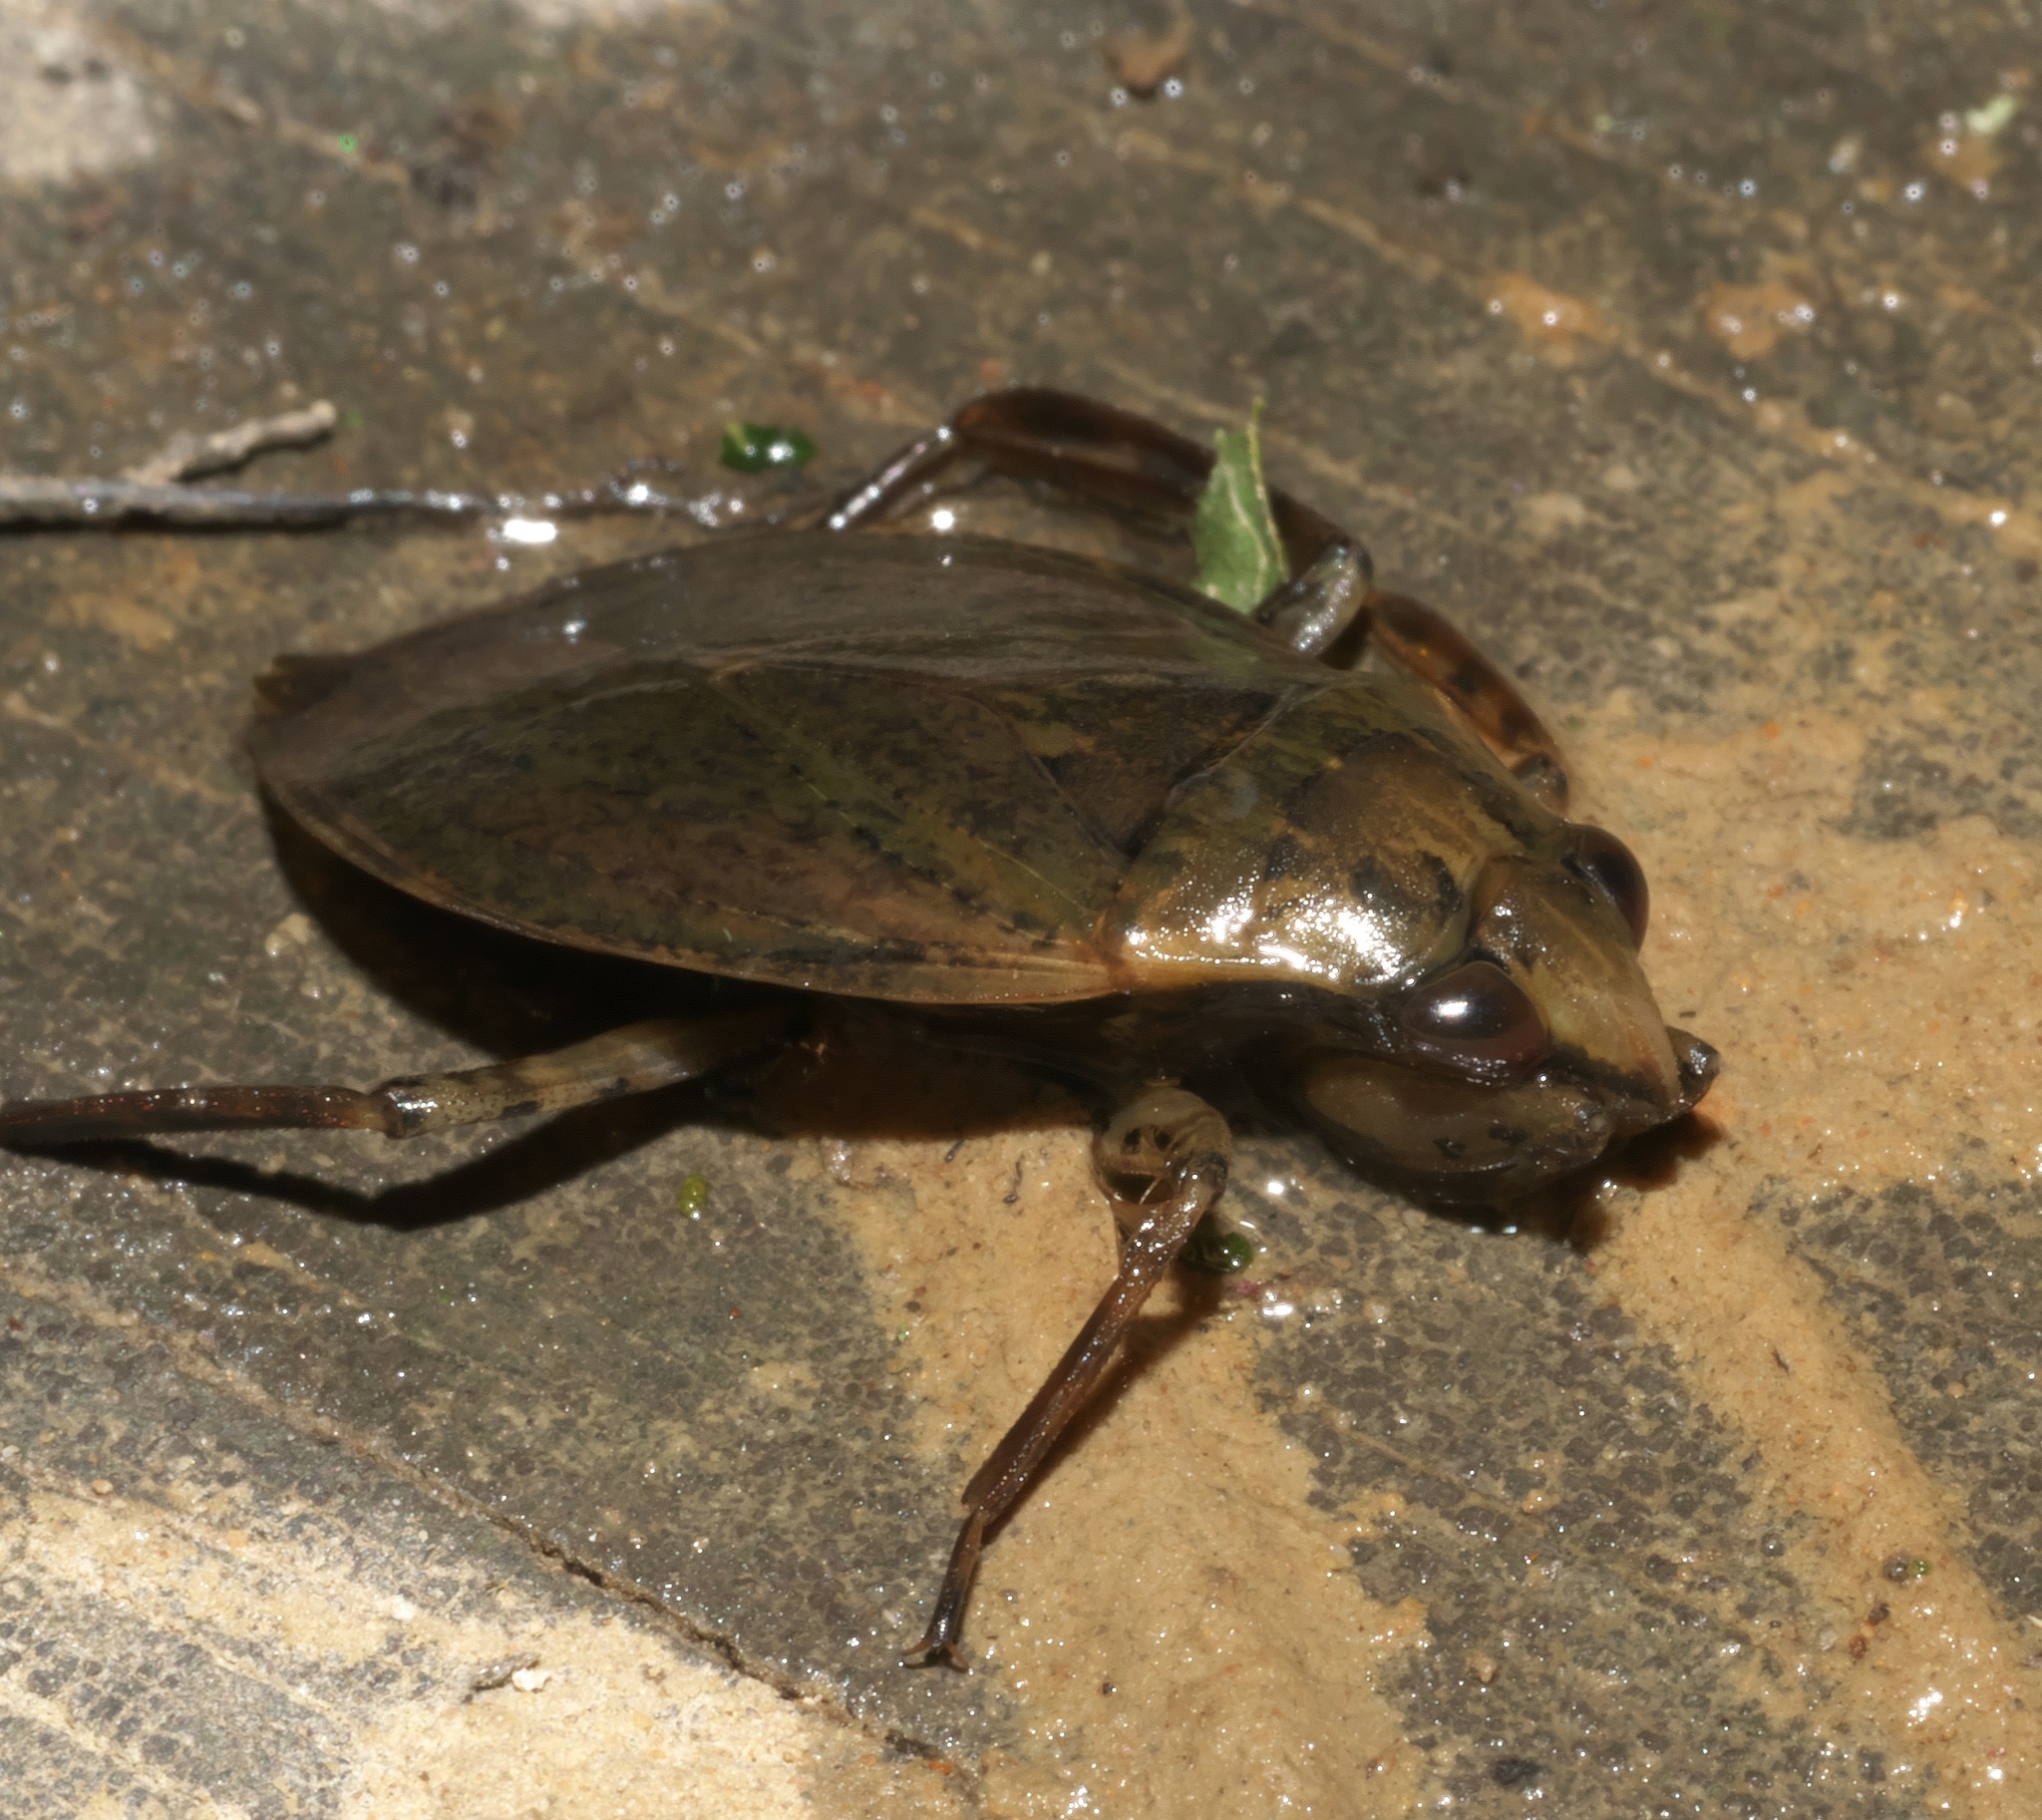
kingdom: Animalia
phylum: Arthropoda
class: Insecta
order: Hemiptera
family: Belostomatidae
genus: Belostoma
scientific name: Belostoma lutarium
